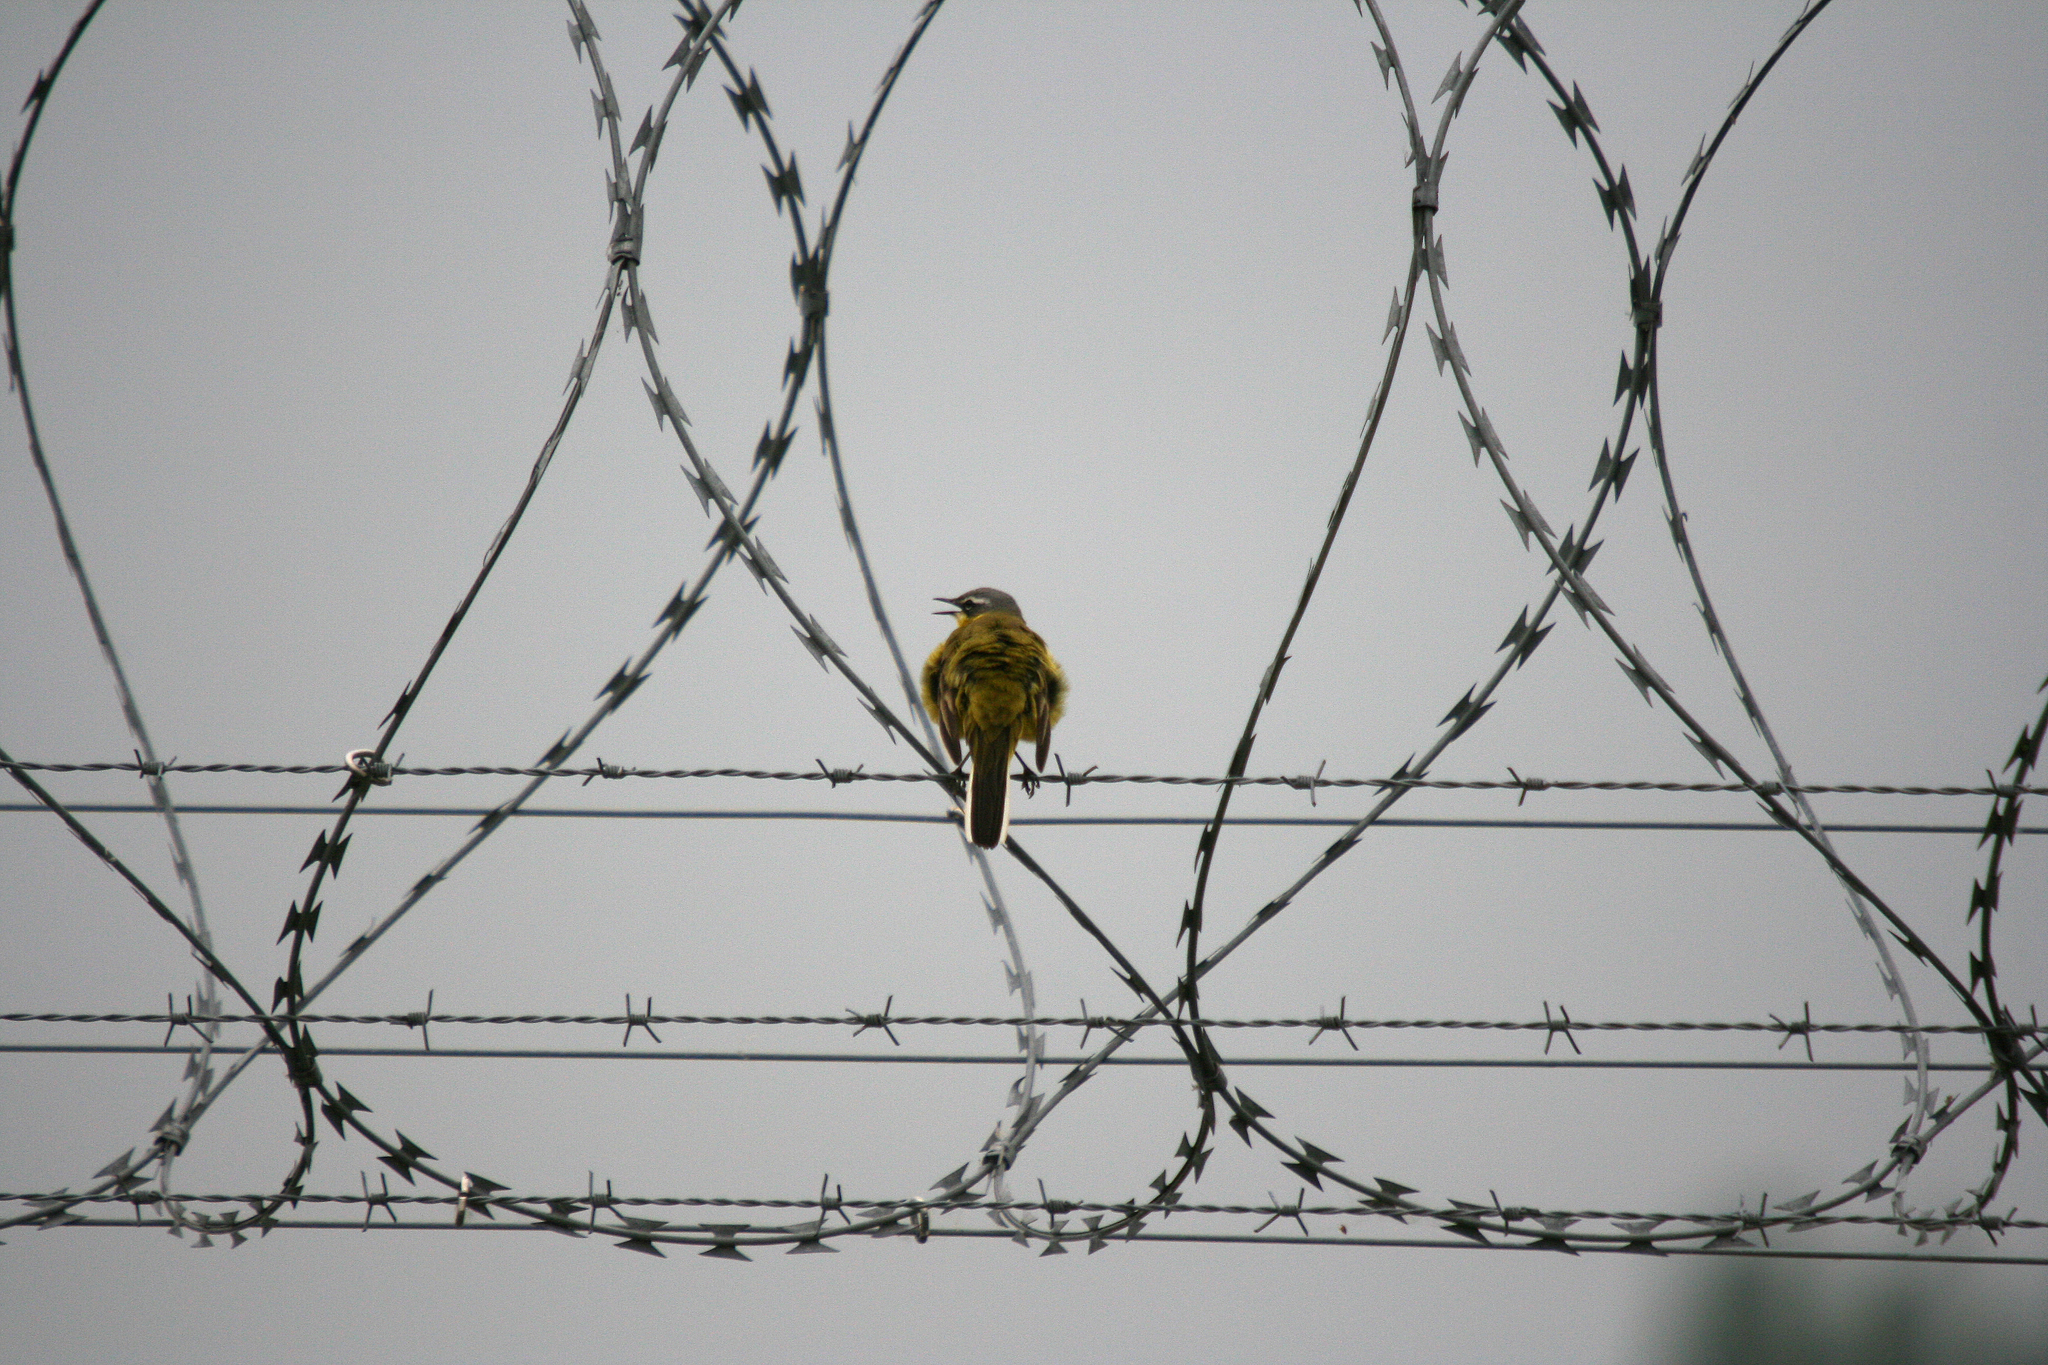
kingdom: Animalia
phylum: Chordata
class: Aves
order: Passeriformes
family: Motacillidae
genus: Motacilla
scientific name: Motacilla flava
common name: Western yellow wagtail
